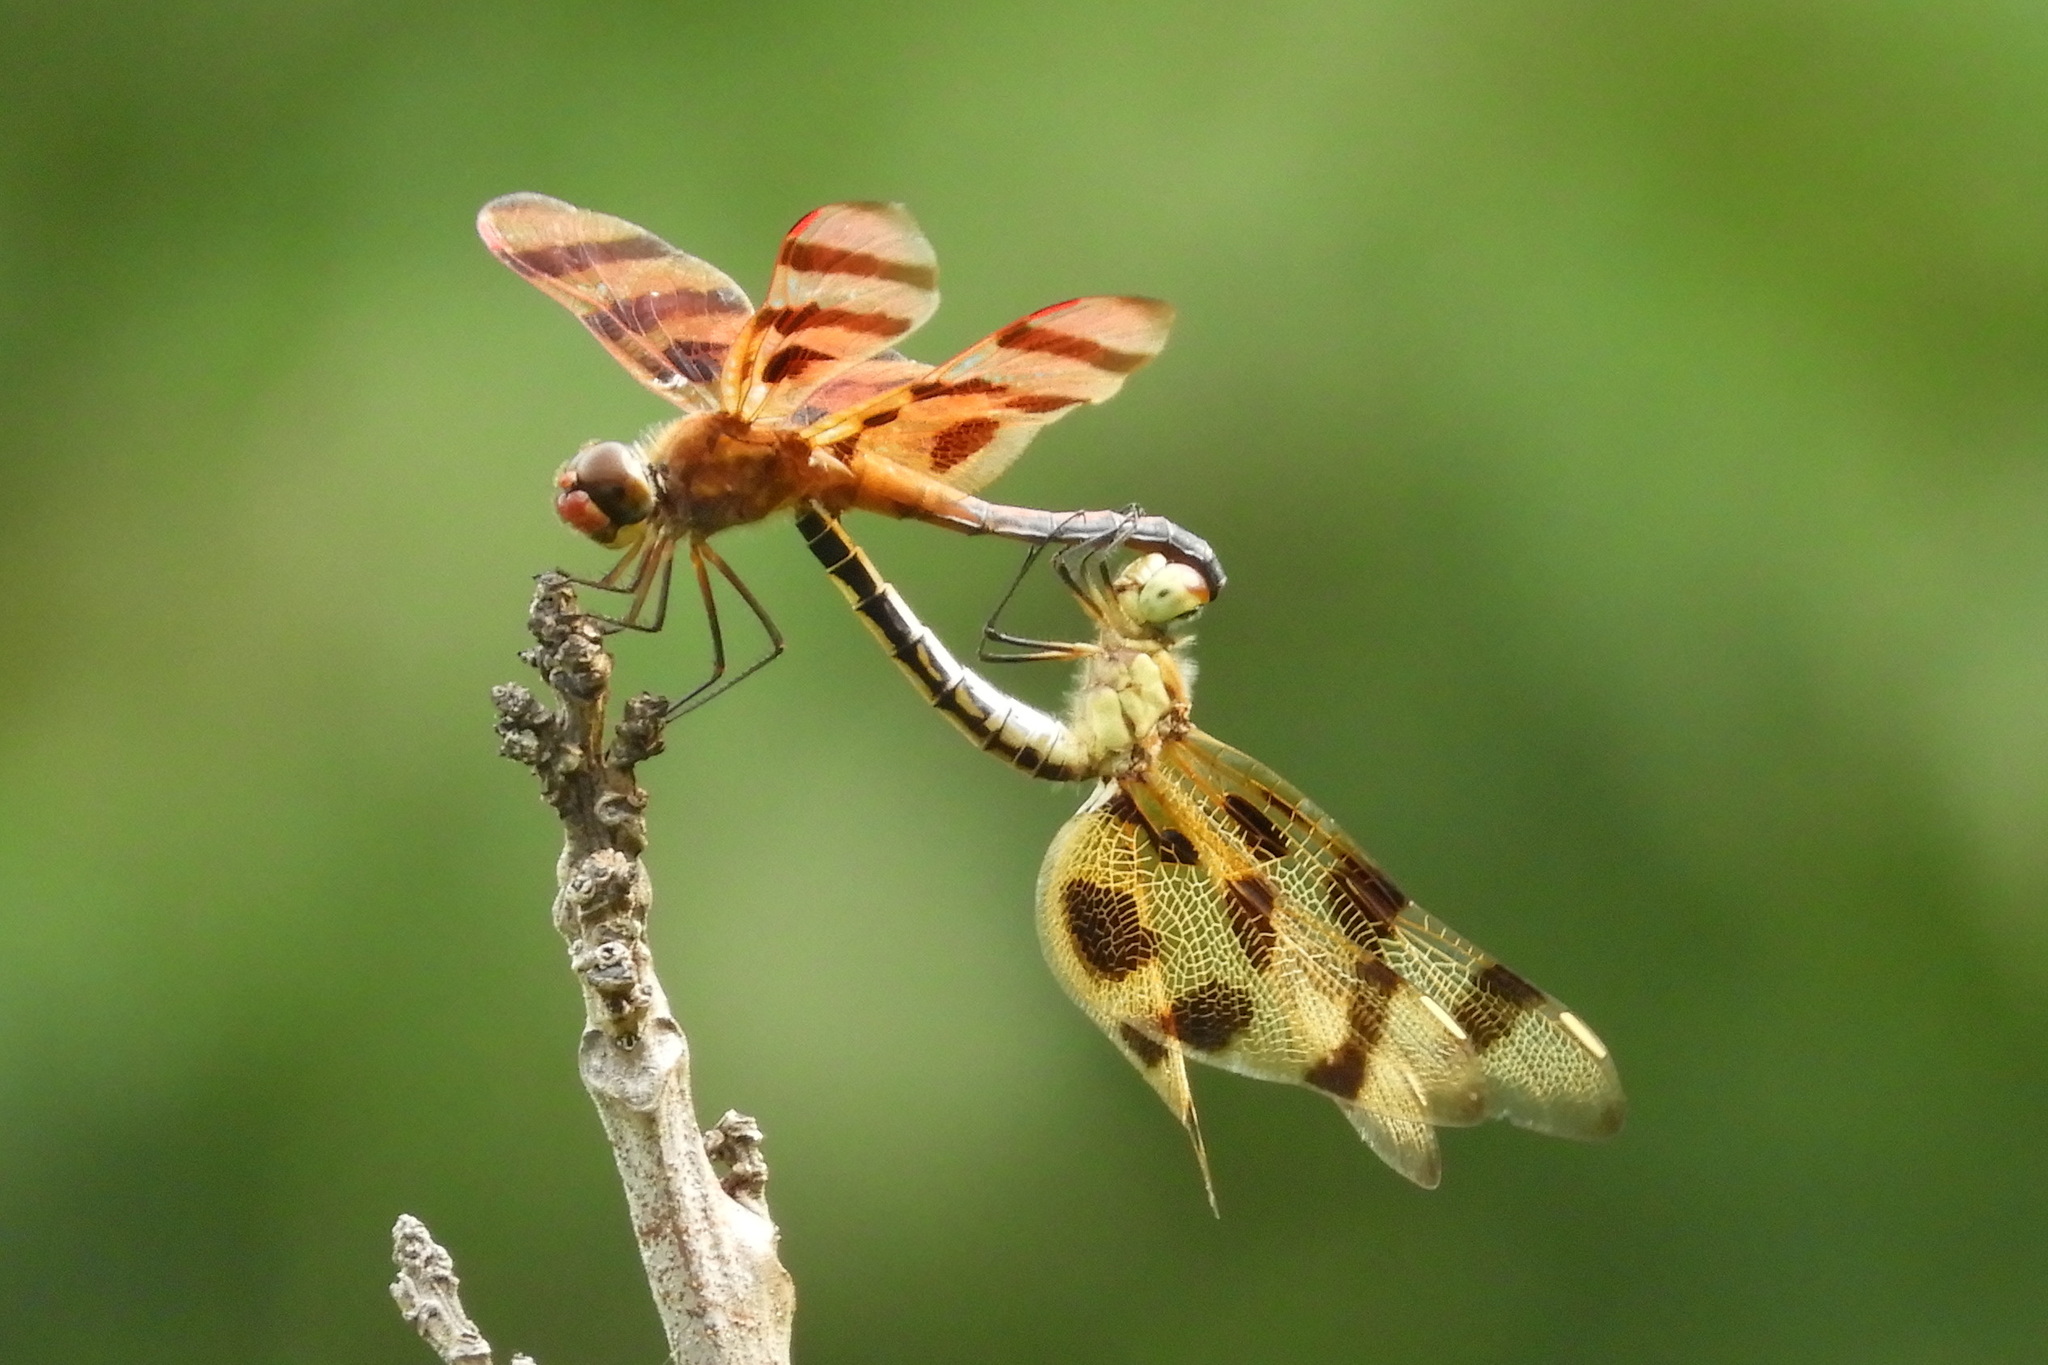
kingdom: Animalia
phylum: Arthropoda
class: Insecta
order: Odonata
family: Libellulidae
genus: Celithemis
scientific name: Celithemis eponina
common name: Halloween pennant
